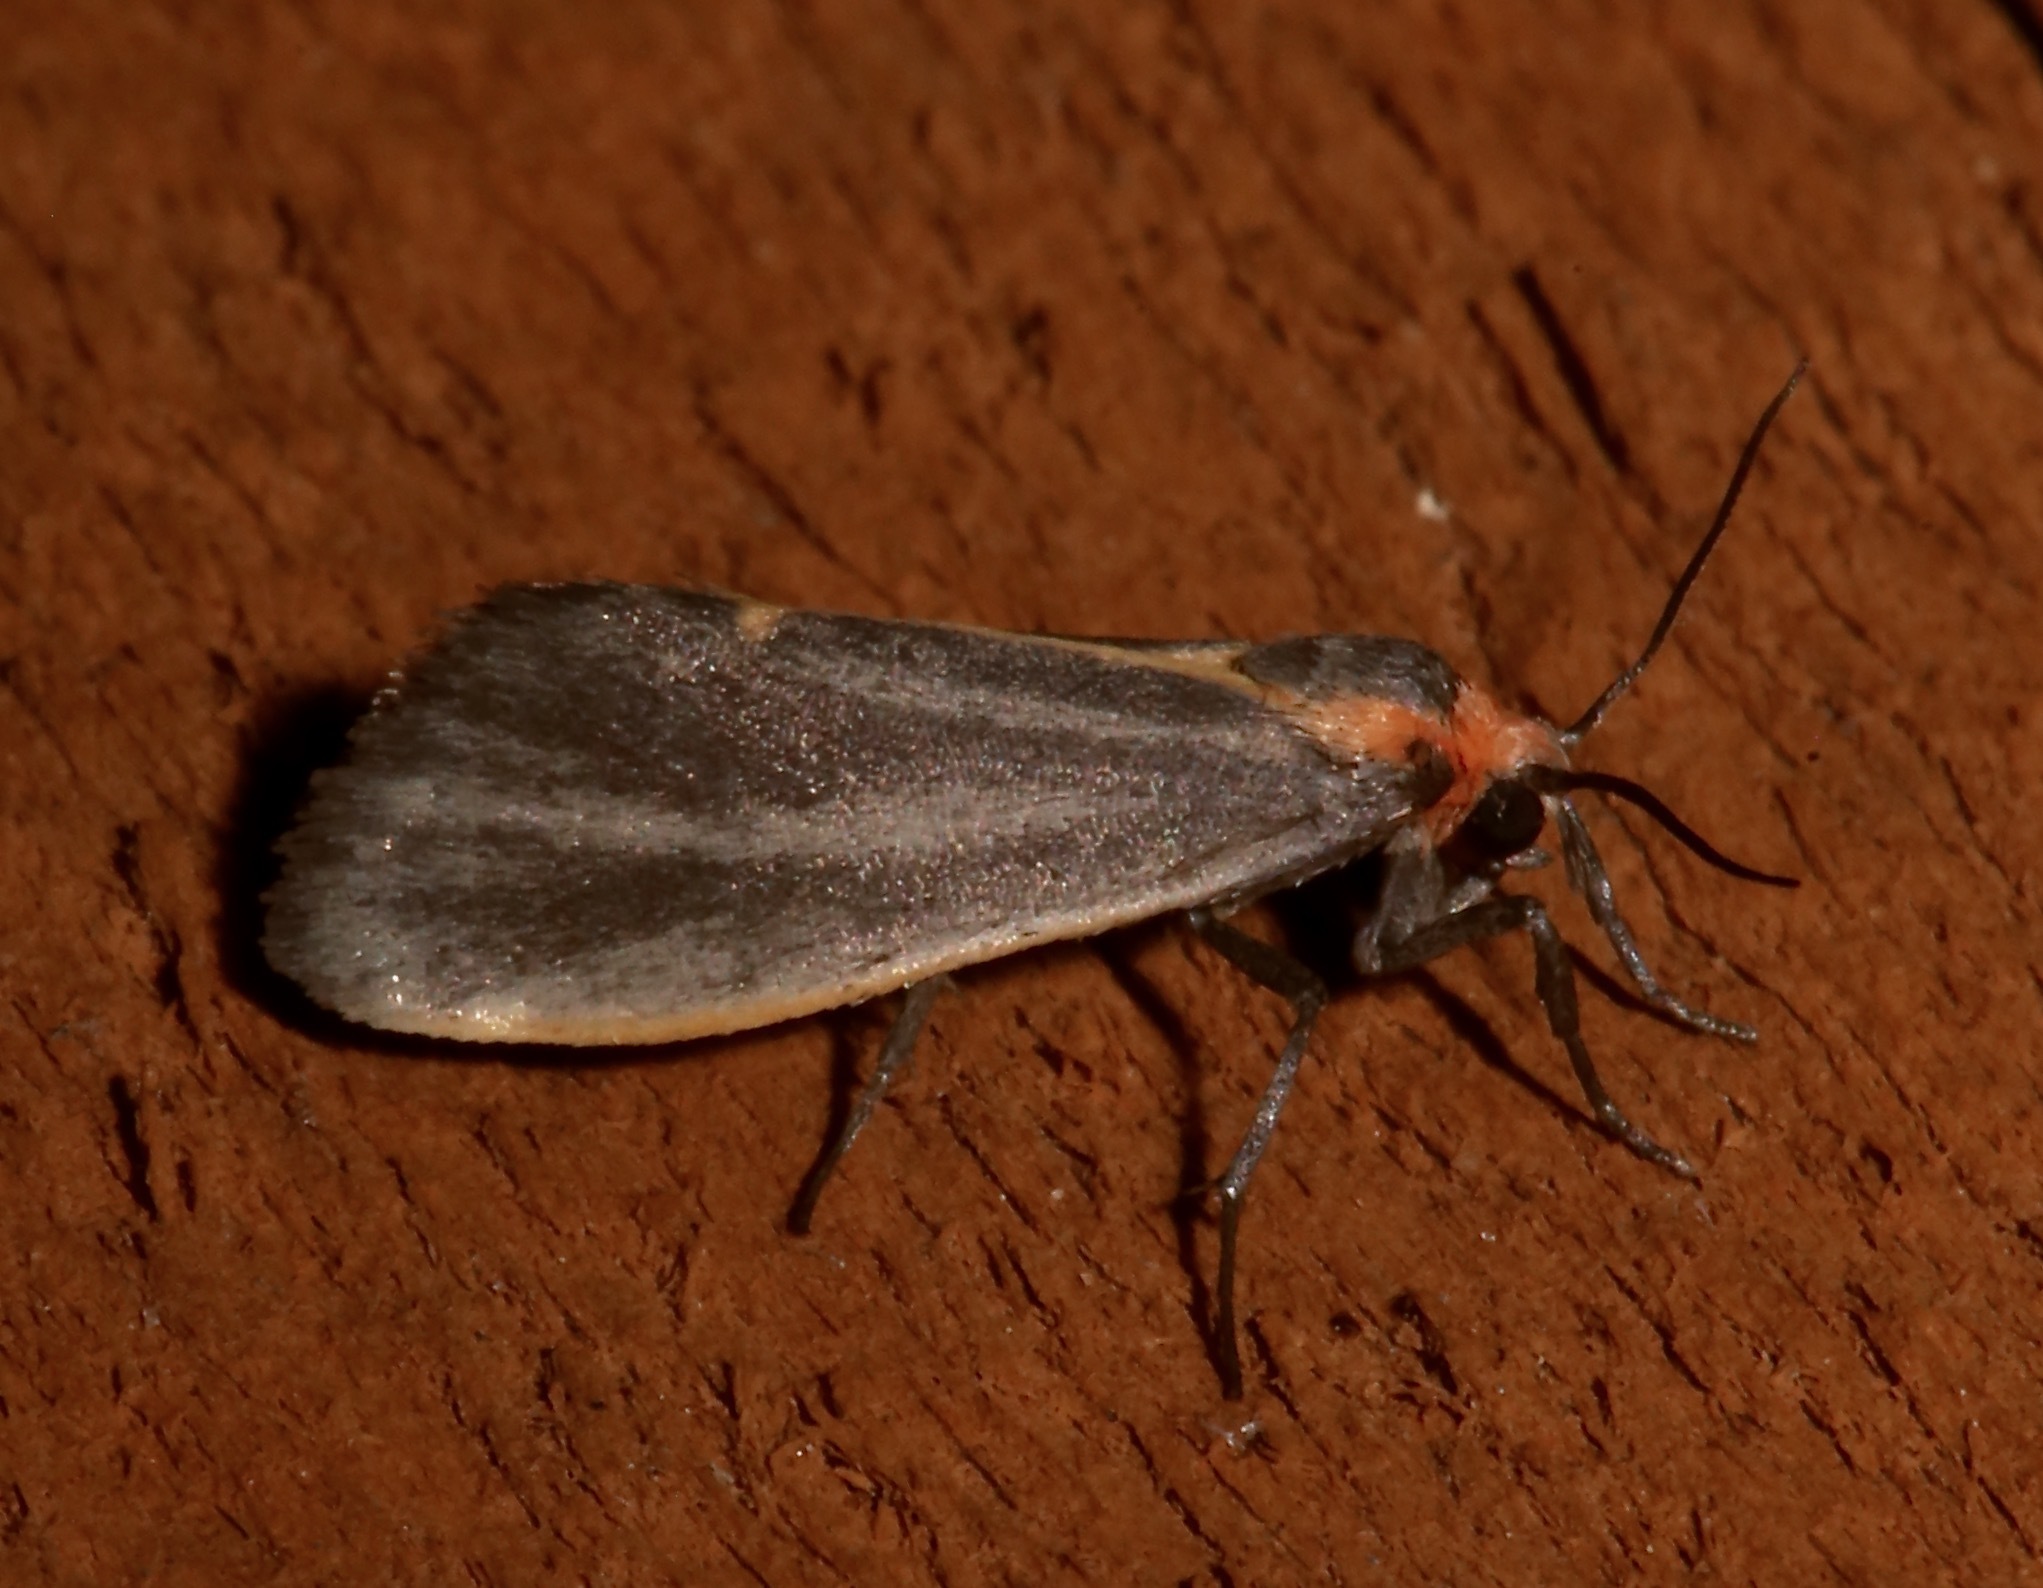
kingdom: Animalia
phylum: Arthropoda
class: Insecta
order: Lepidoptera
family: Erebidae
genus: Cisthene
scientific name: Cisthene striata
